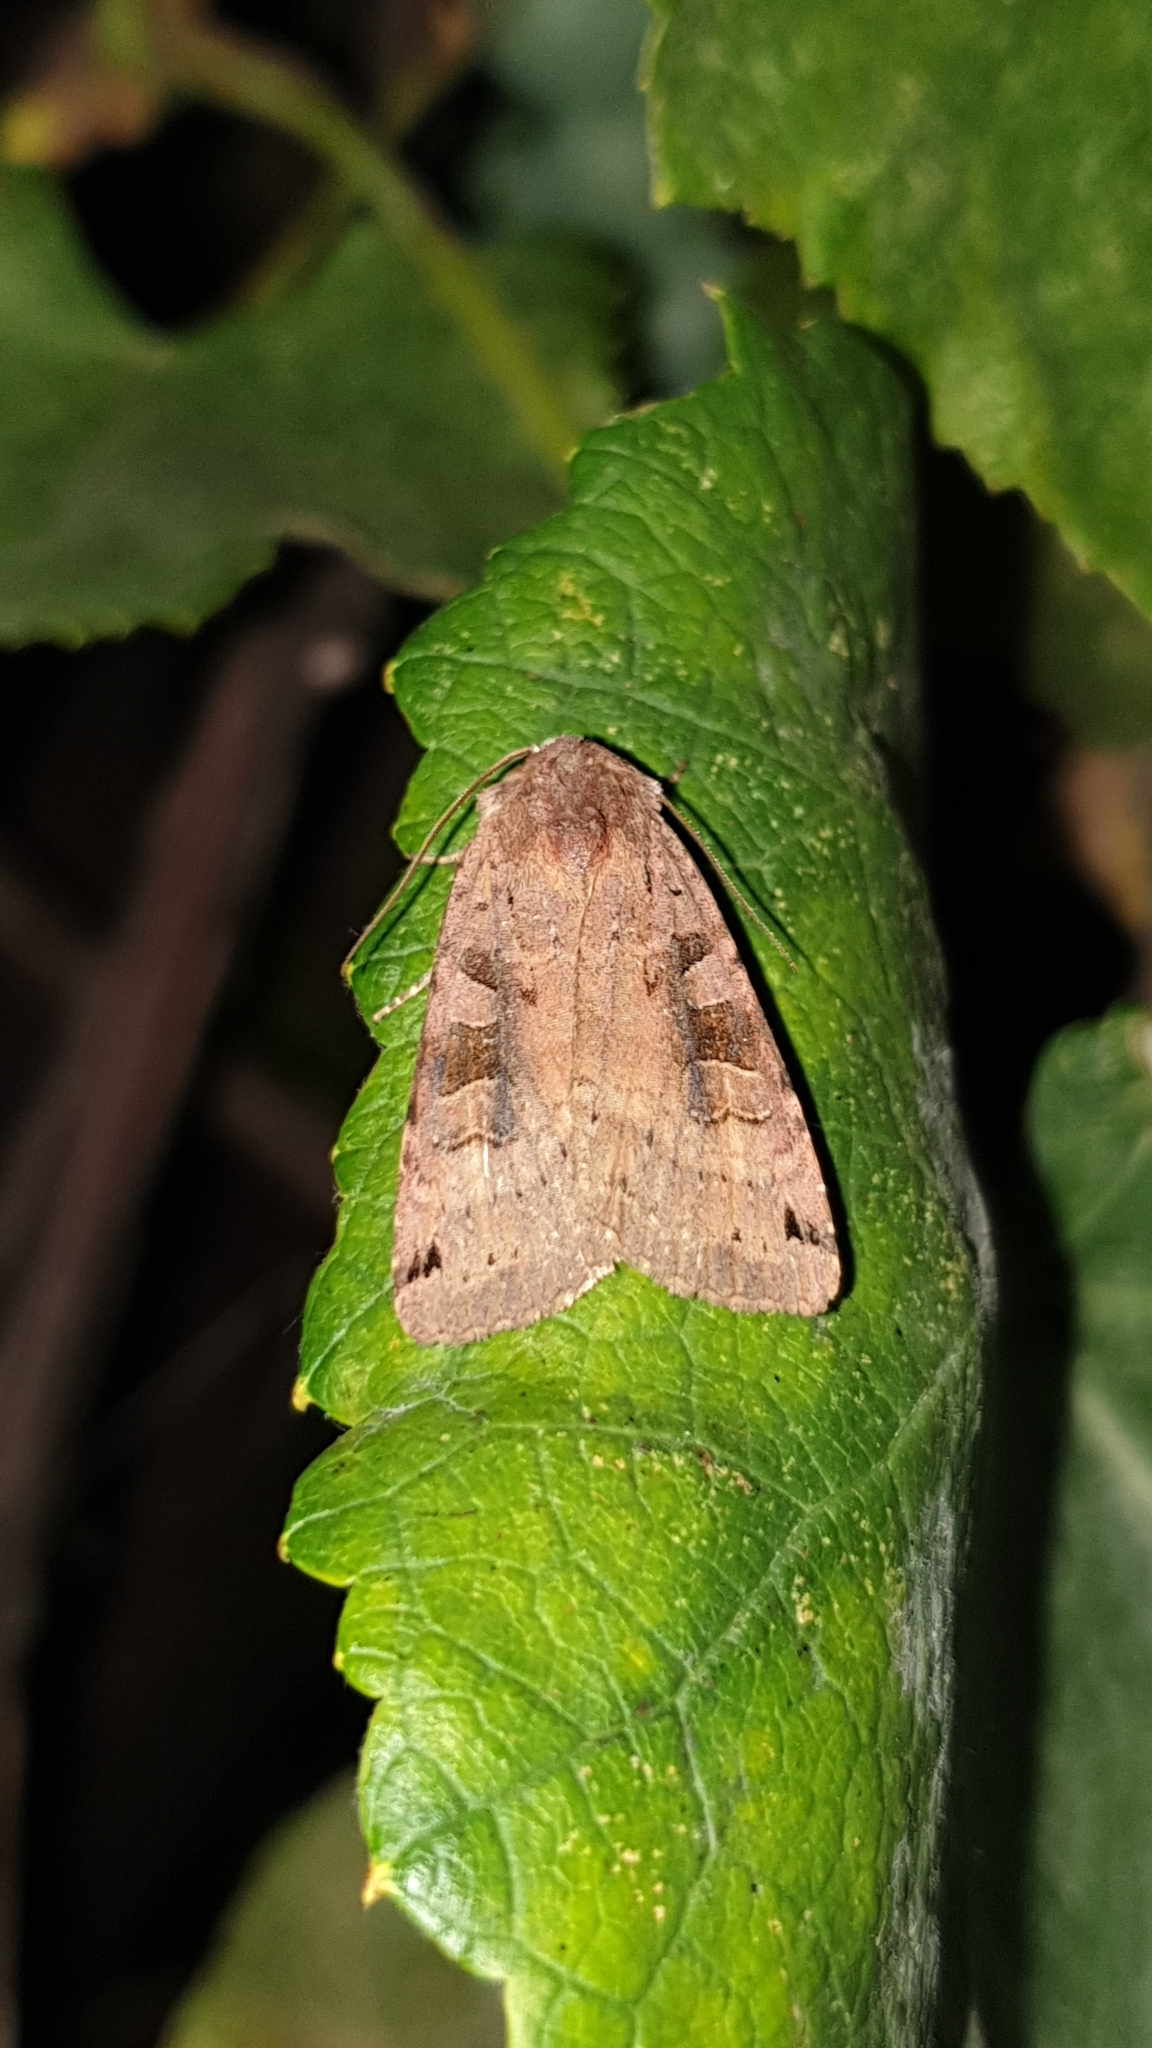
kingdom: Animalia
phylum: Arthropoda
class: Insecta
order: Lepidoptera
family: Noctuidae
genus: Xestia
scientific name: Xestia baja
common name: Dotted clay
